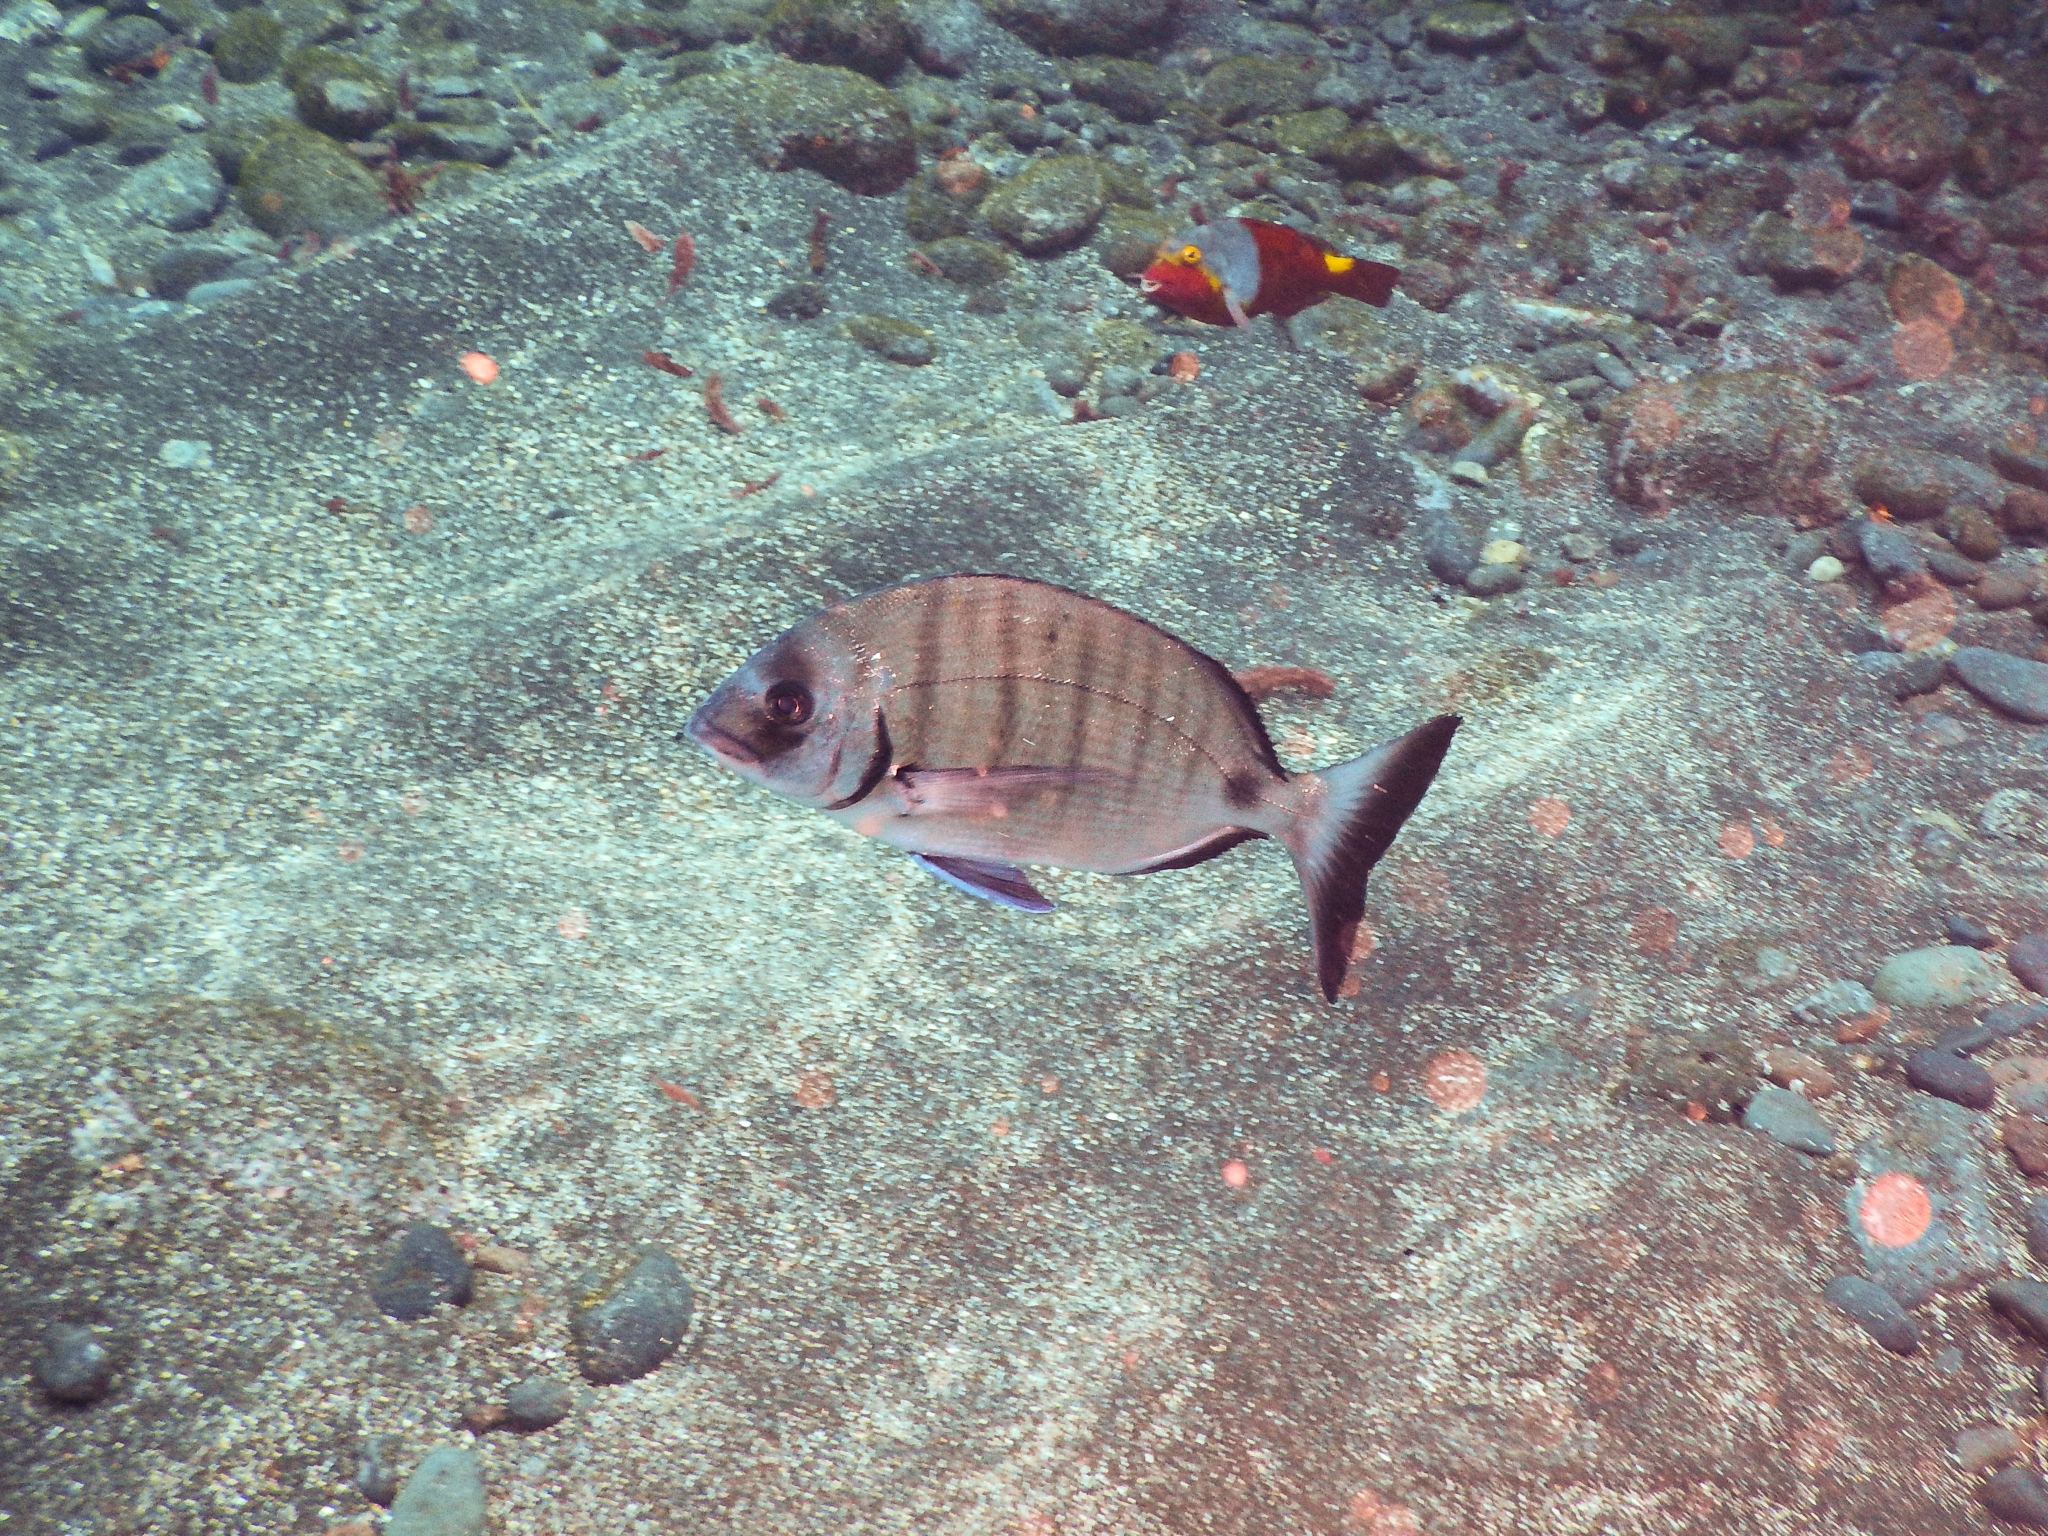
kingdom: Animalia
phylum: Chordata
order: Perciformes
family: Sparidae
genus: Diplodus
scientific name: Diplodus cadenati
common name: Moroccan white seabream
